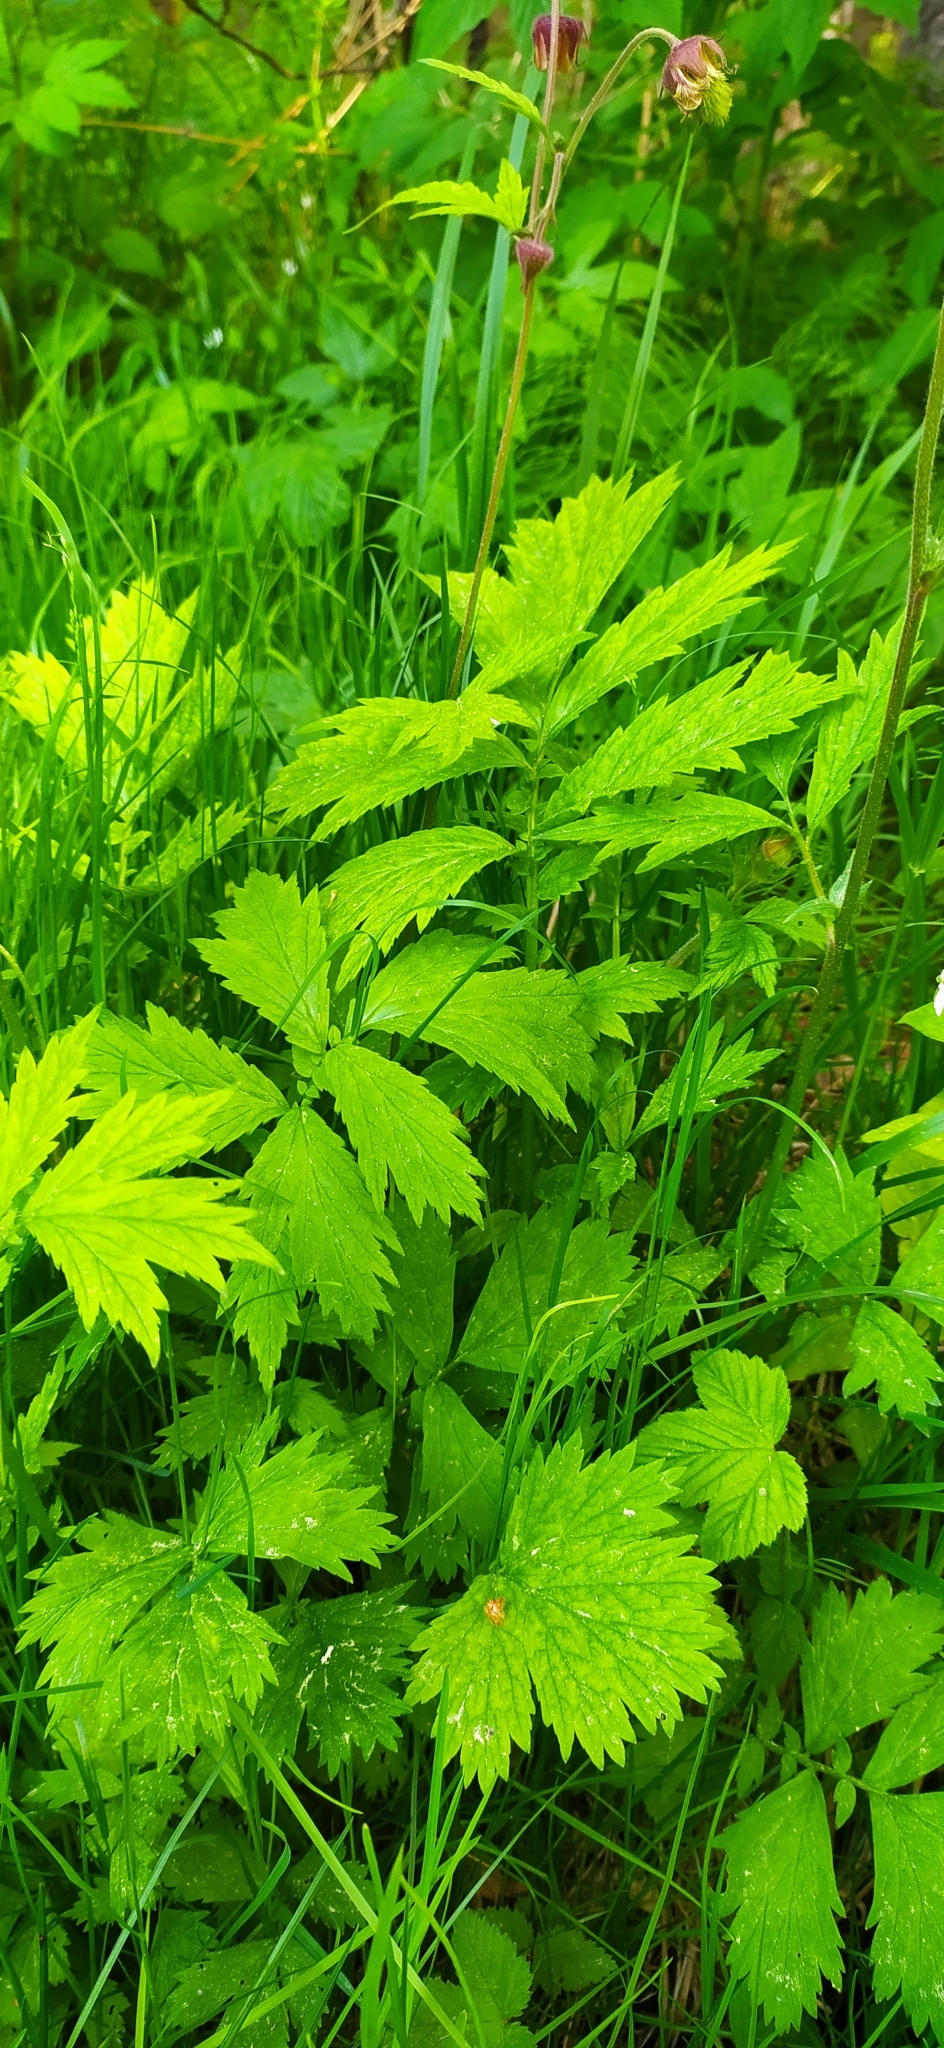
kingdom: Plantae
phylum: Tracheophyta
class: Magnoliopsida
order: Rosales
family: Rosaceae
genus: Geum
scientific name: Geum rivale
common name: Water avens
